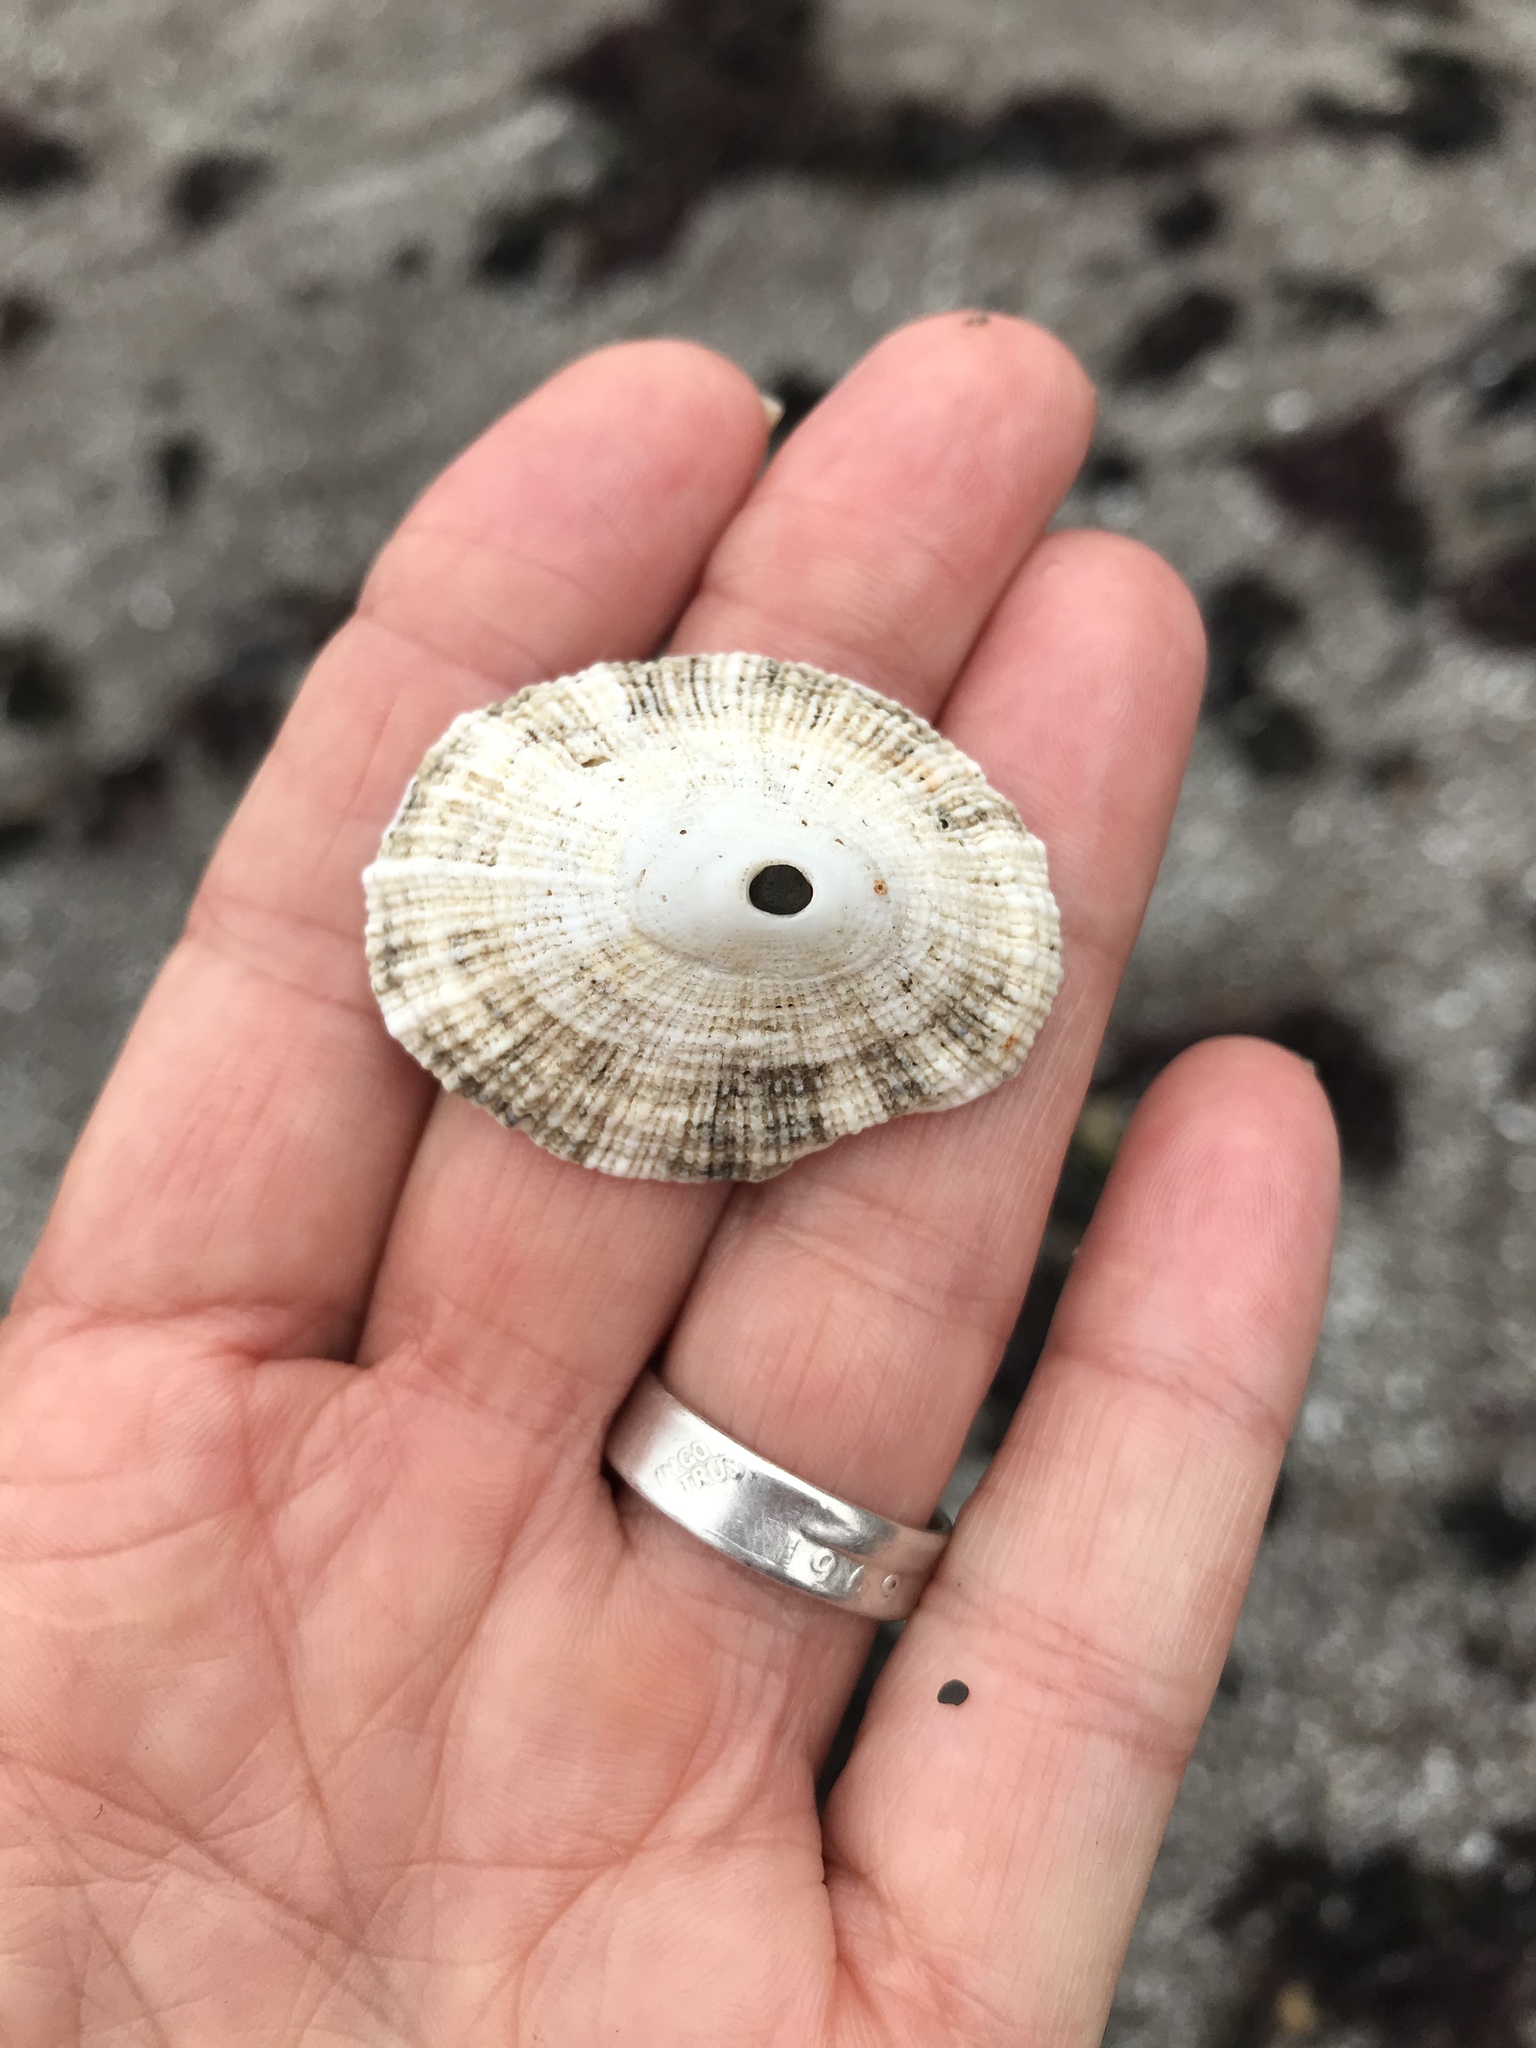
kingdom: Animalia
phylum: Mollusca
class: Gastropoda
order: Lepetellida
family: Fissurellidae
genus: Diodora
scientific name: Diodora aspera
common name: Rough keyhole limpet
